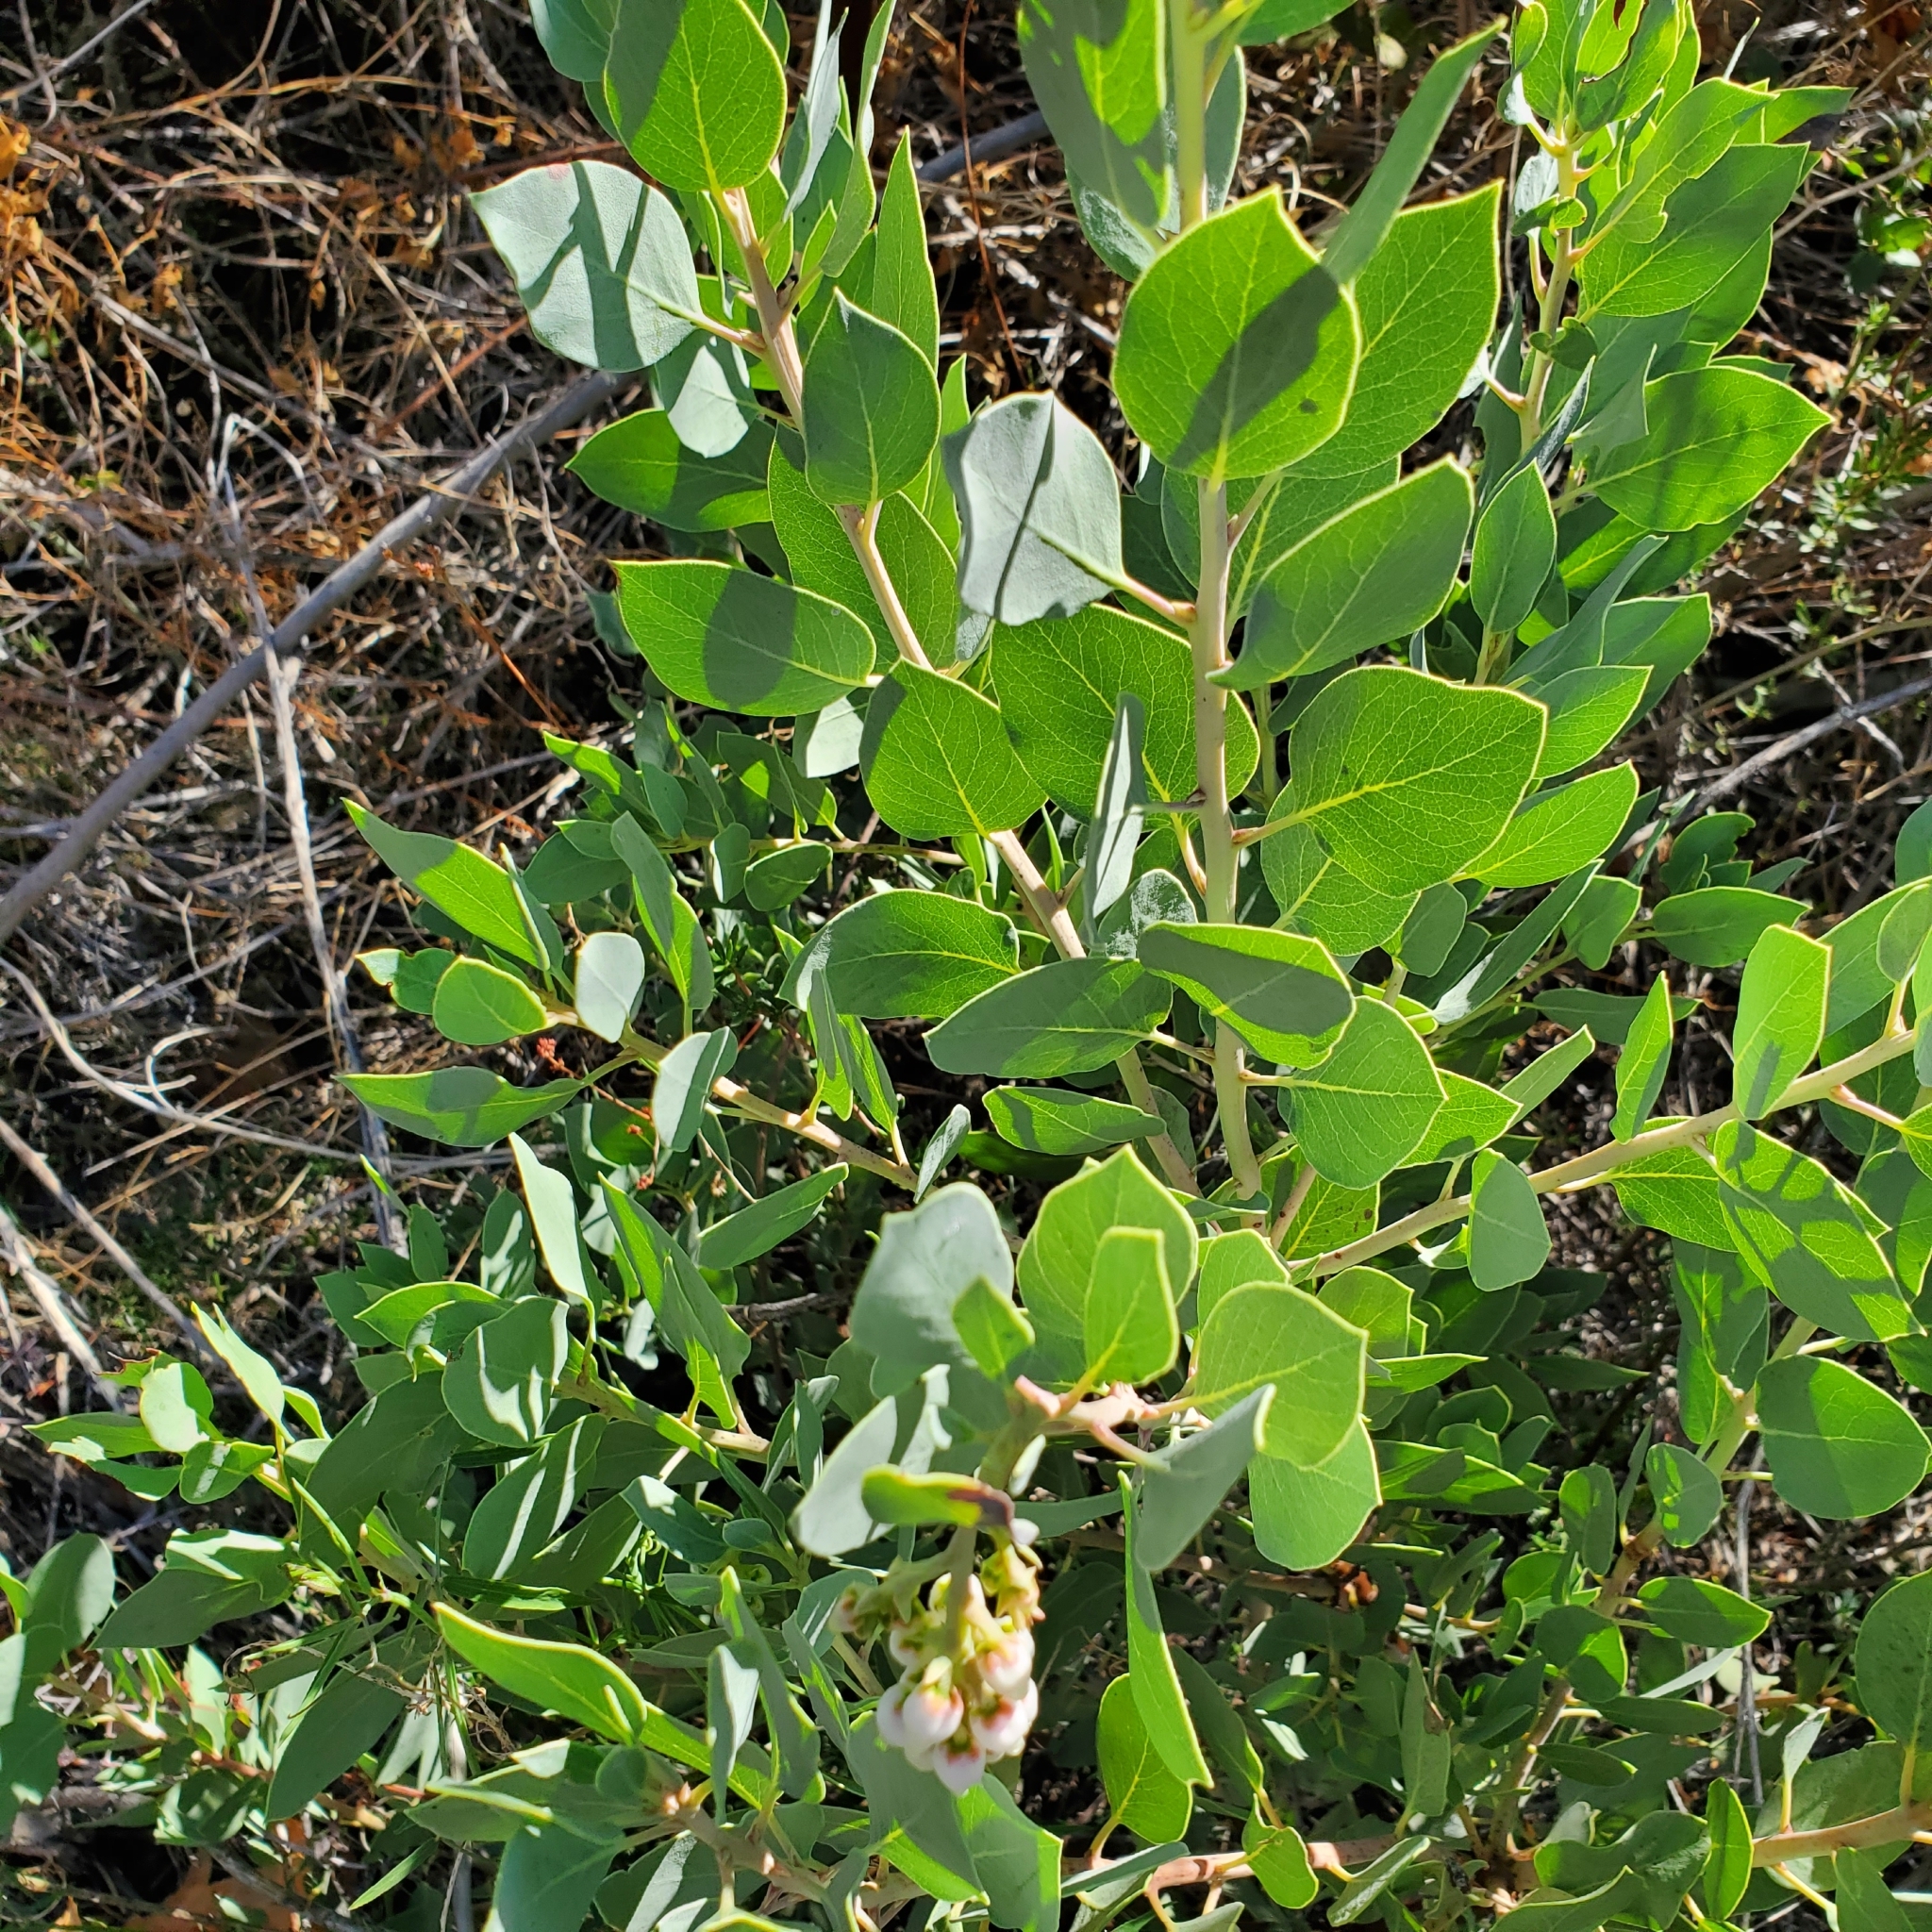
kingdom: Plantae
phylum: Tracheophyta
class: Magnoliopsida
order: Ericales
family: Ericaceae
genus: Arctostaphylos
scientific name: Arctostaphylos glauca
